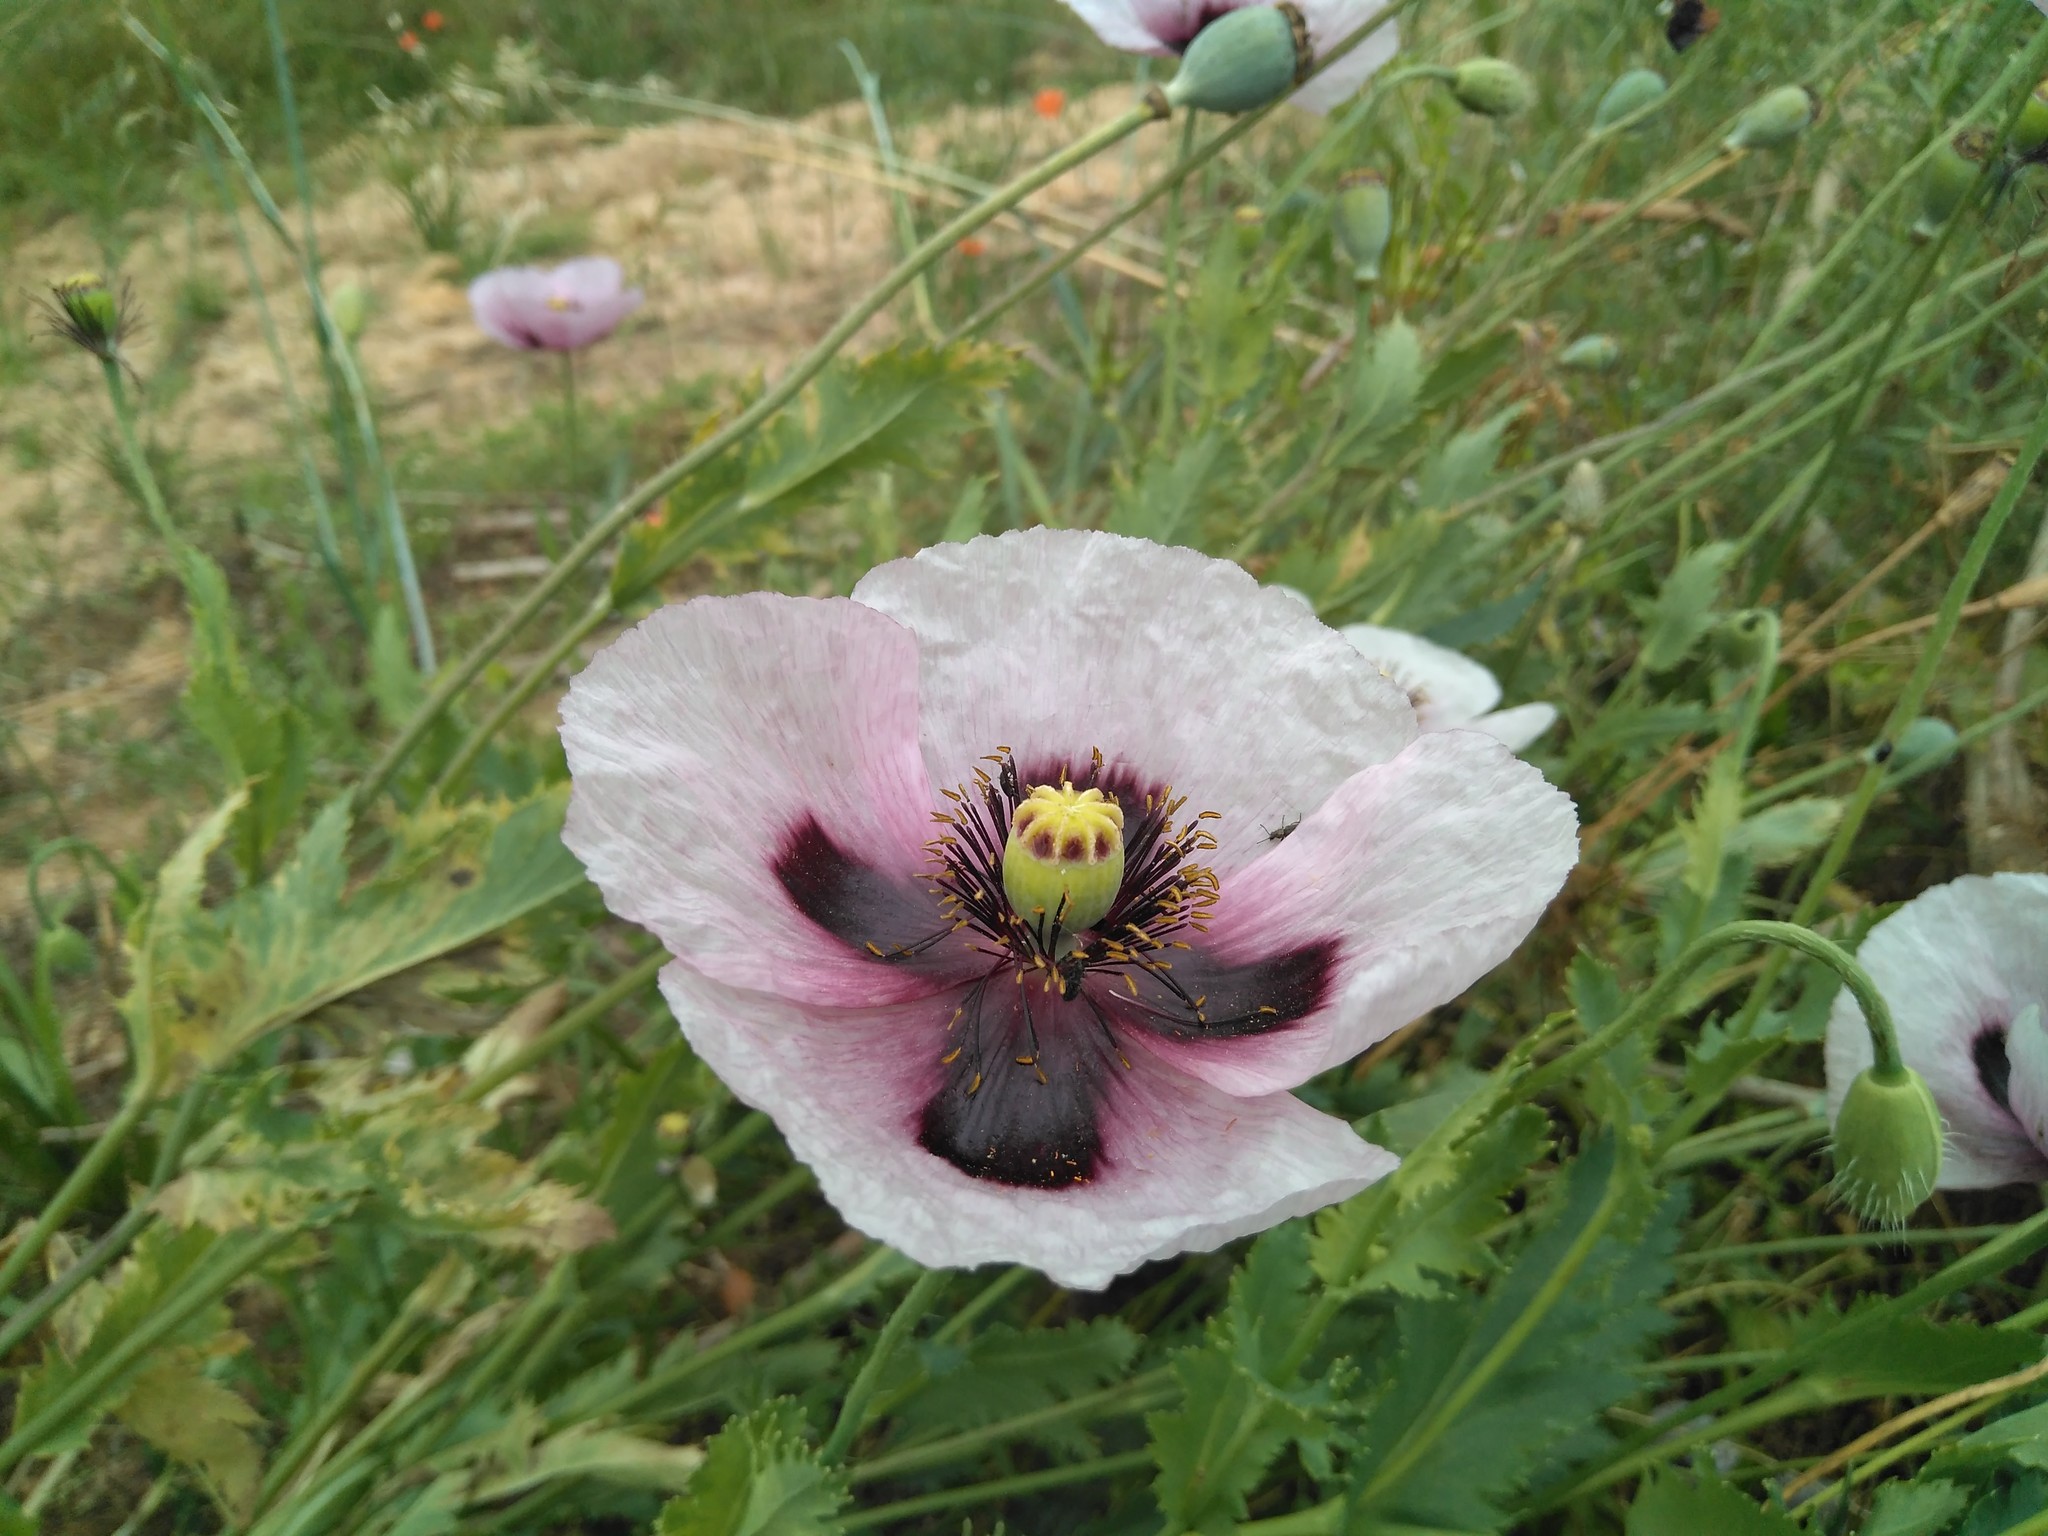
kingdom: Plantae
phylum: Tracheophyta
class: Magnoliopsida
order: Ranunculales
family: Papaveraceae
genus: Papaver
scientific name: Papaver somniferum
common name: Opium poppy
